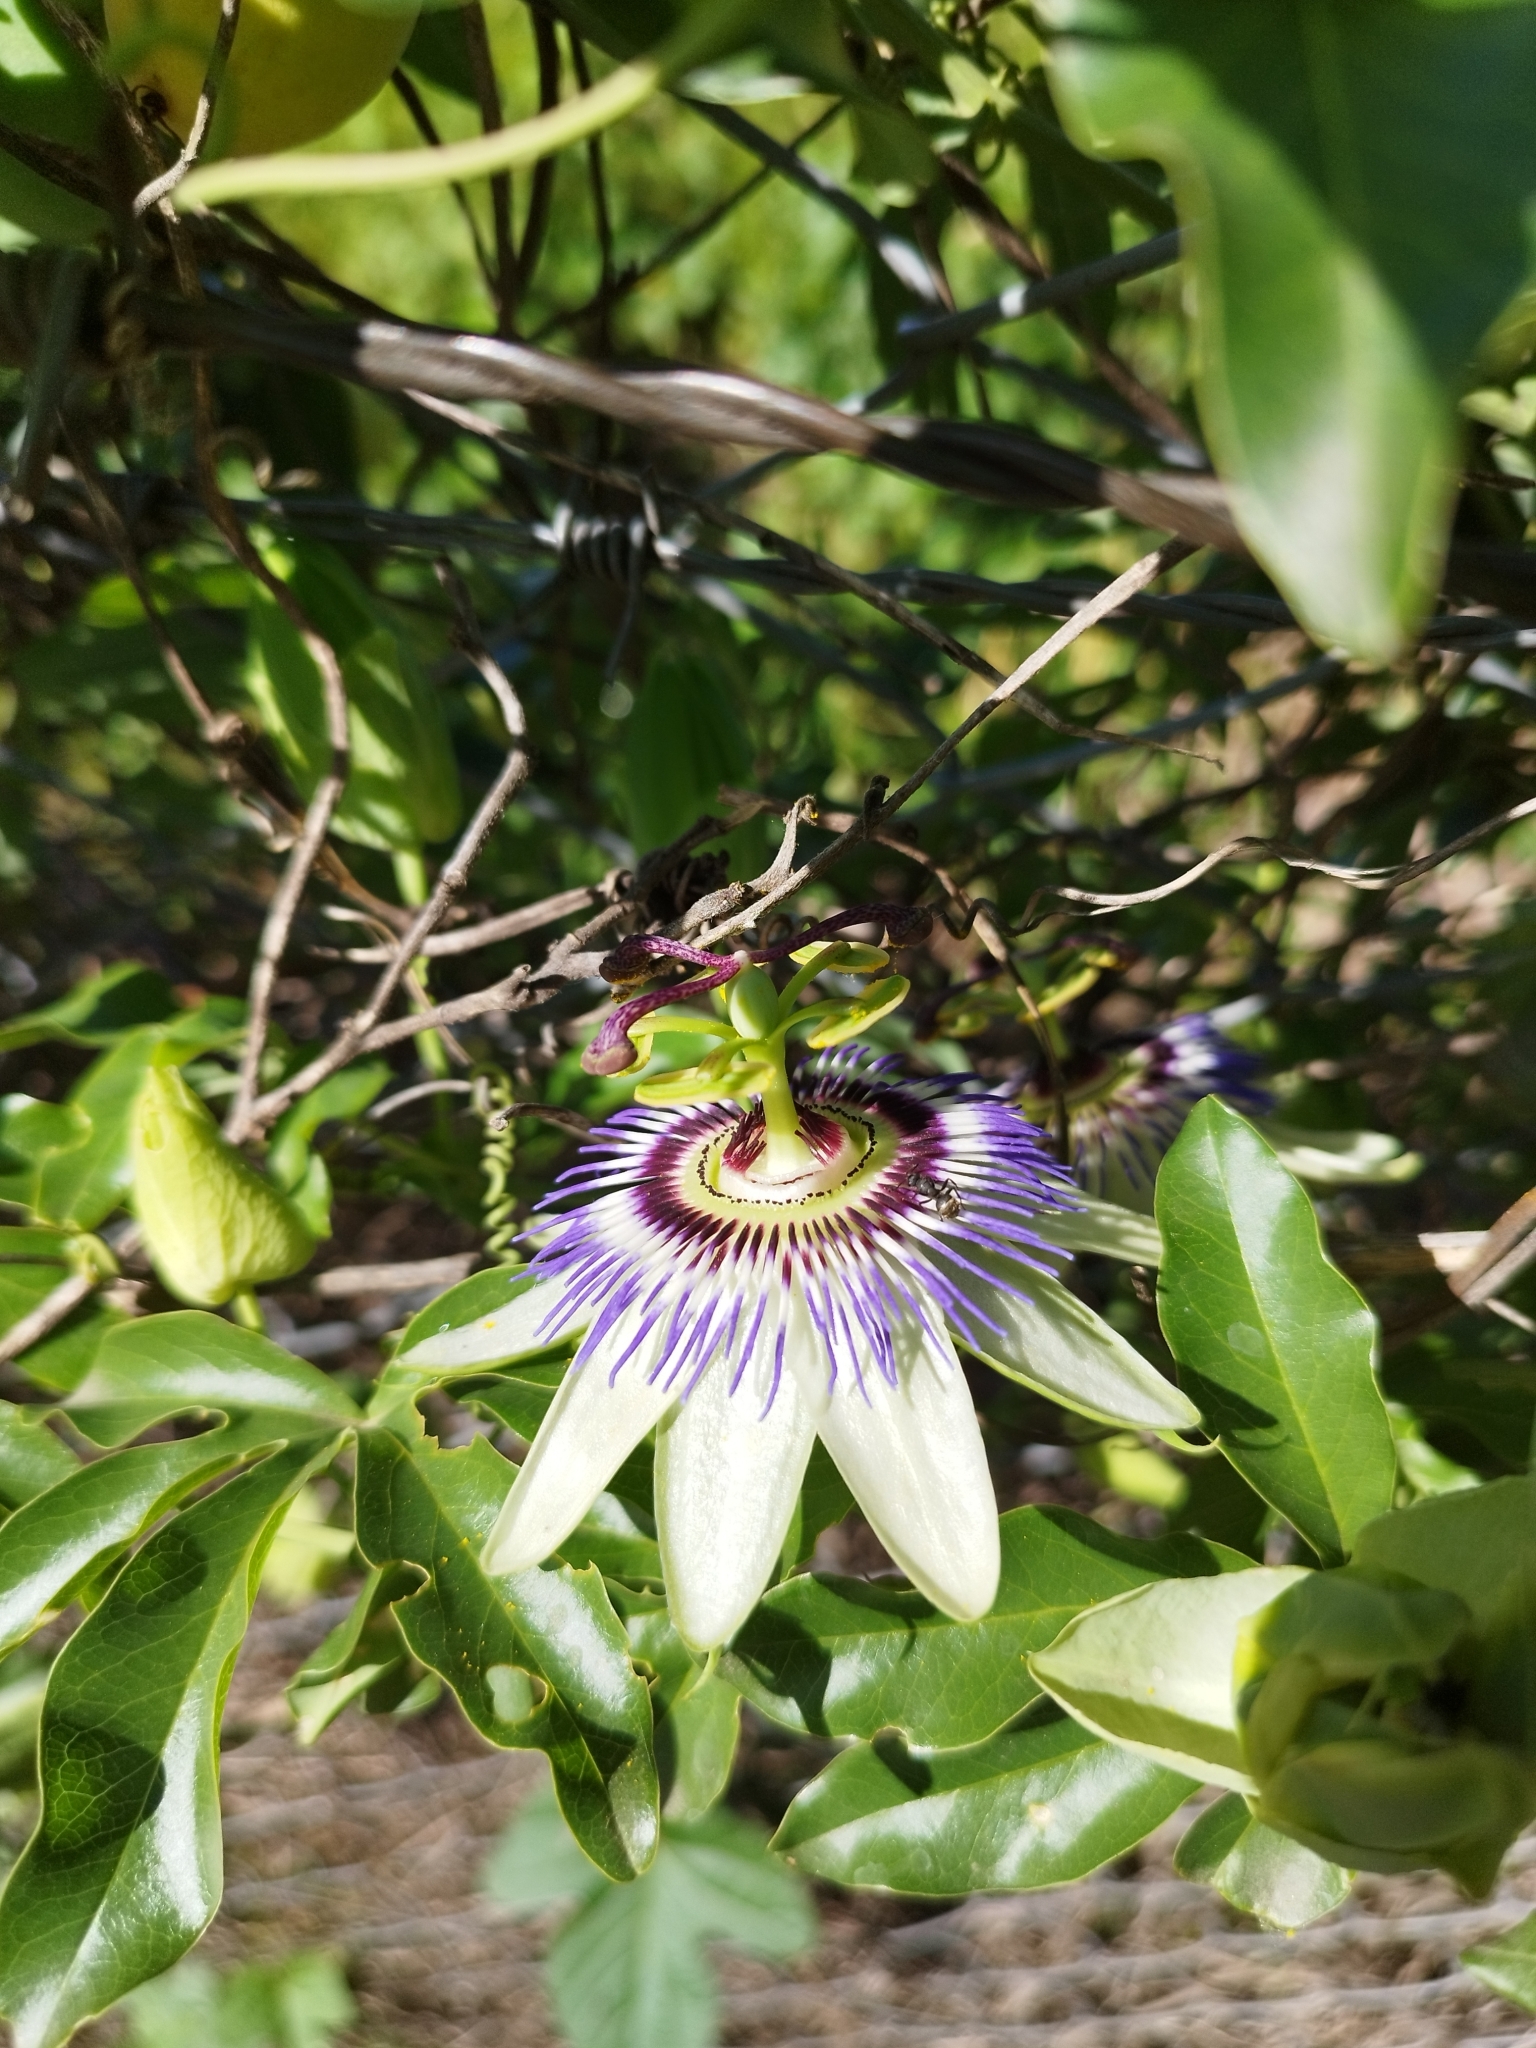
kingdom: Plantae
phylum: Tracheophyta
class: Magnoliopsida
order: Malpighiales
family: Passifloraceae
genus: Passiflora
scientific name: Passiflora caerulea
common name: Blue passionflower
